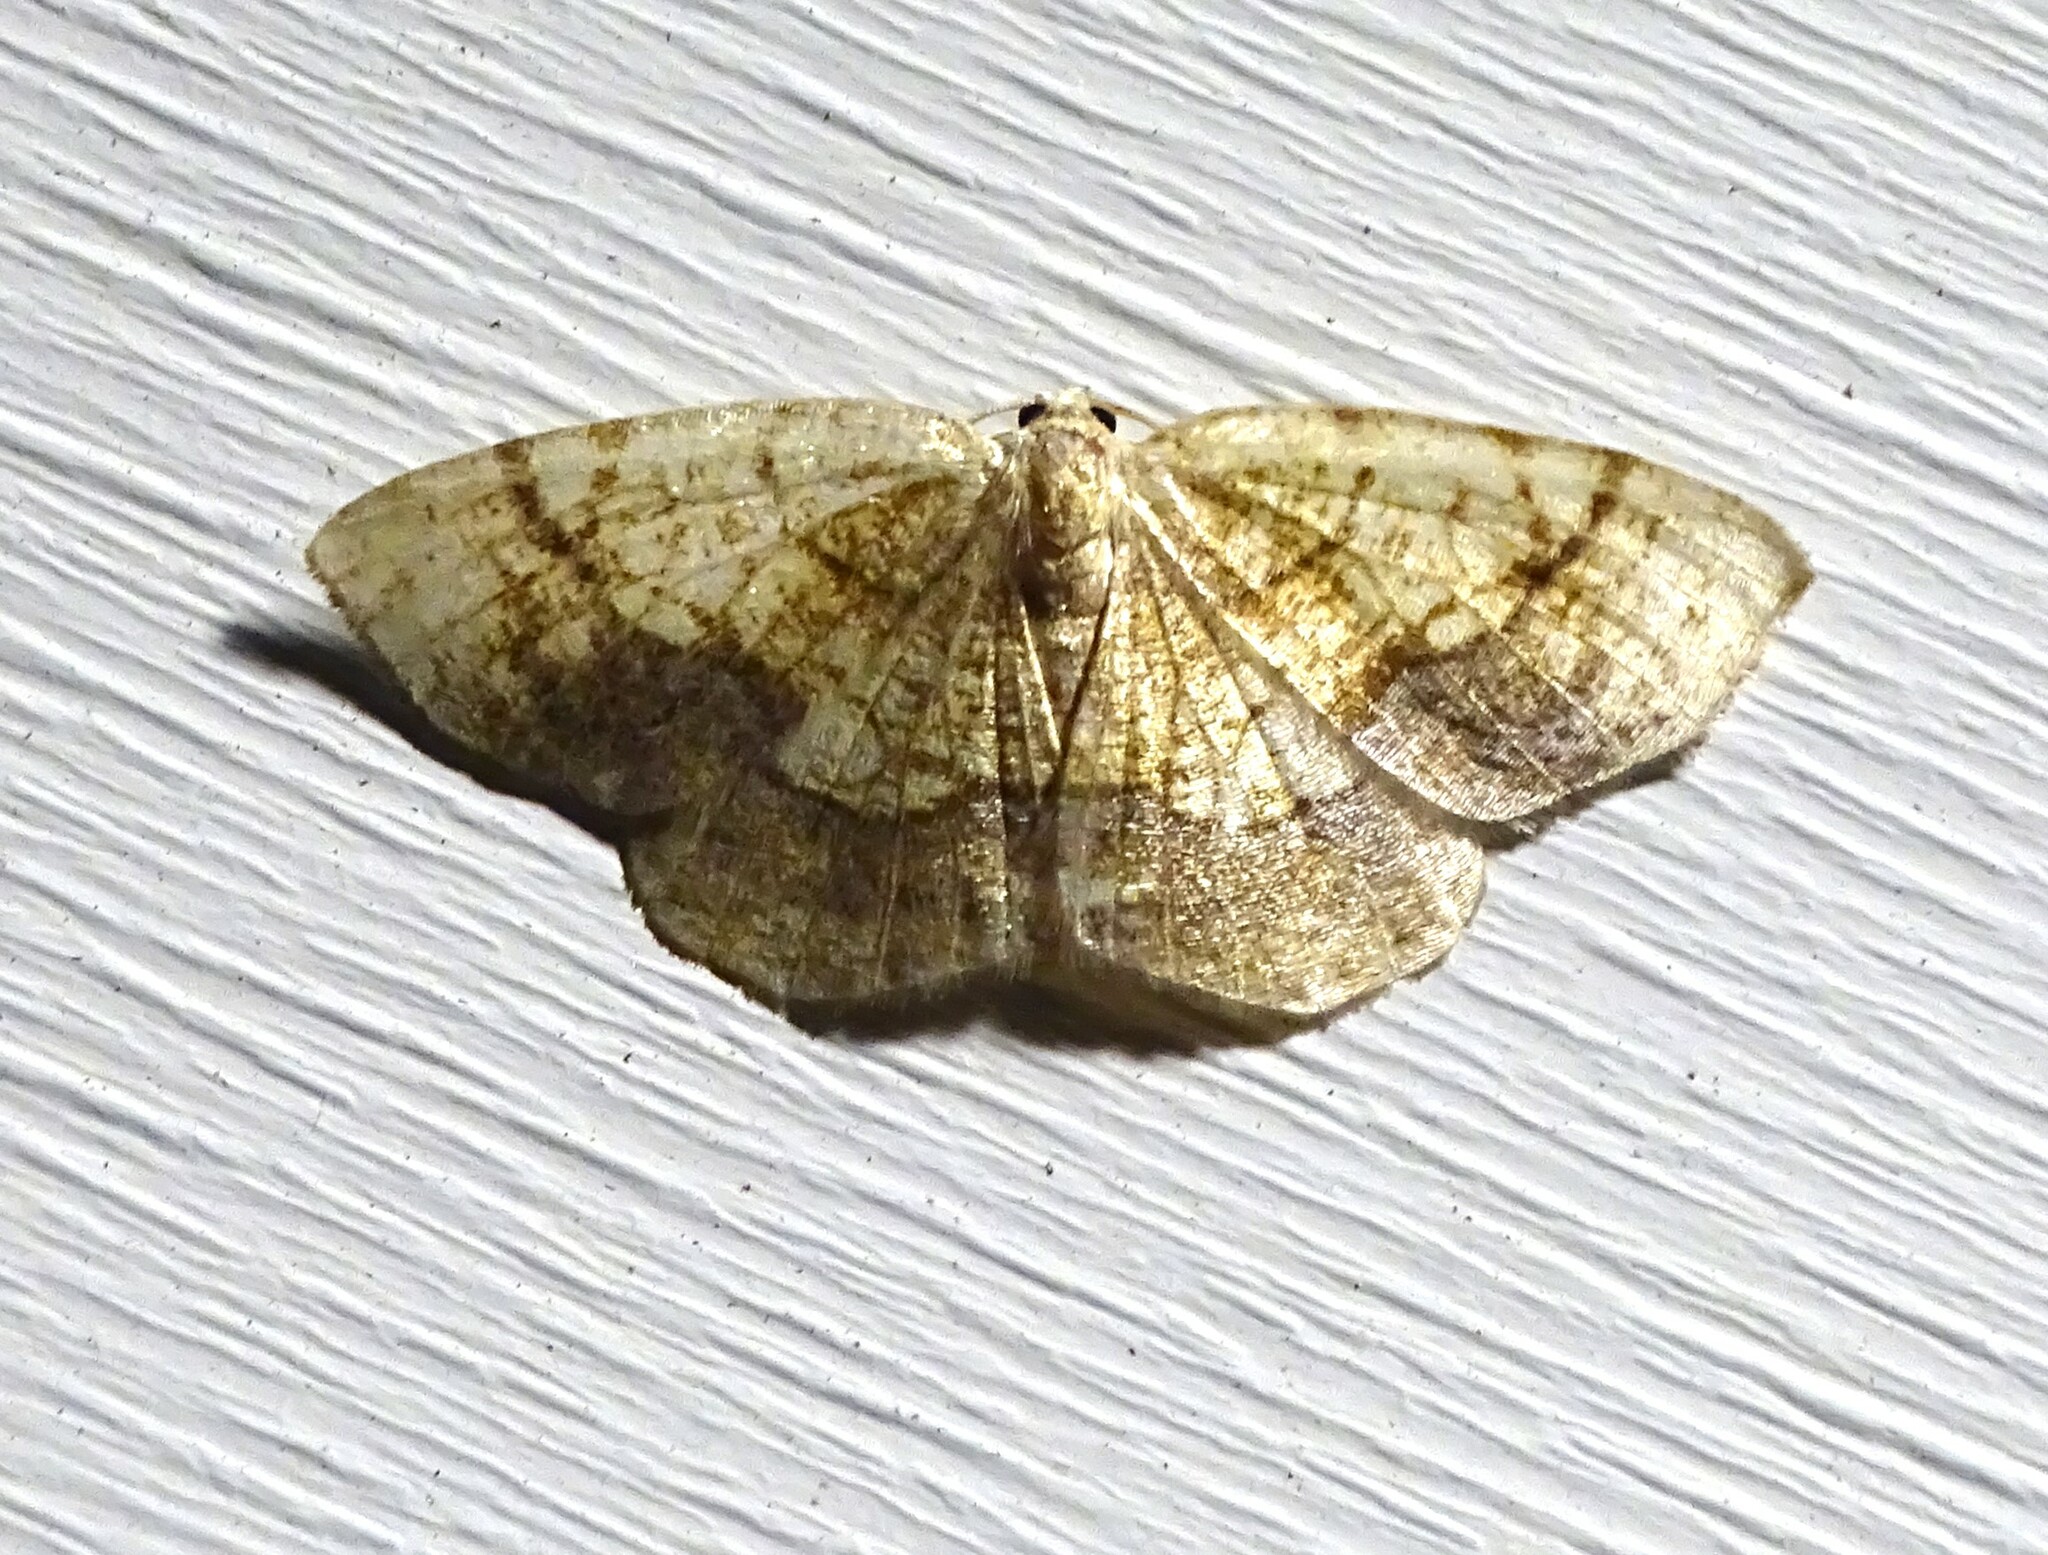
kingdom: Animalia
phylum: Arthropoda
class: Insecta
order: Lepidoptera
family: Geometridae
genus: Nematocampa
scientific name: Nematocampa resistaria
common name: Horned spanworm moth
